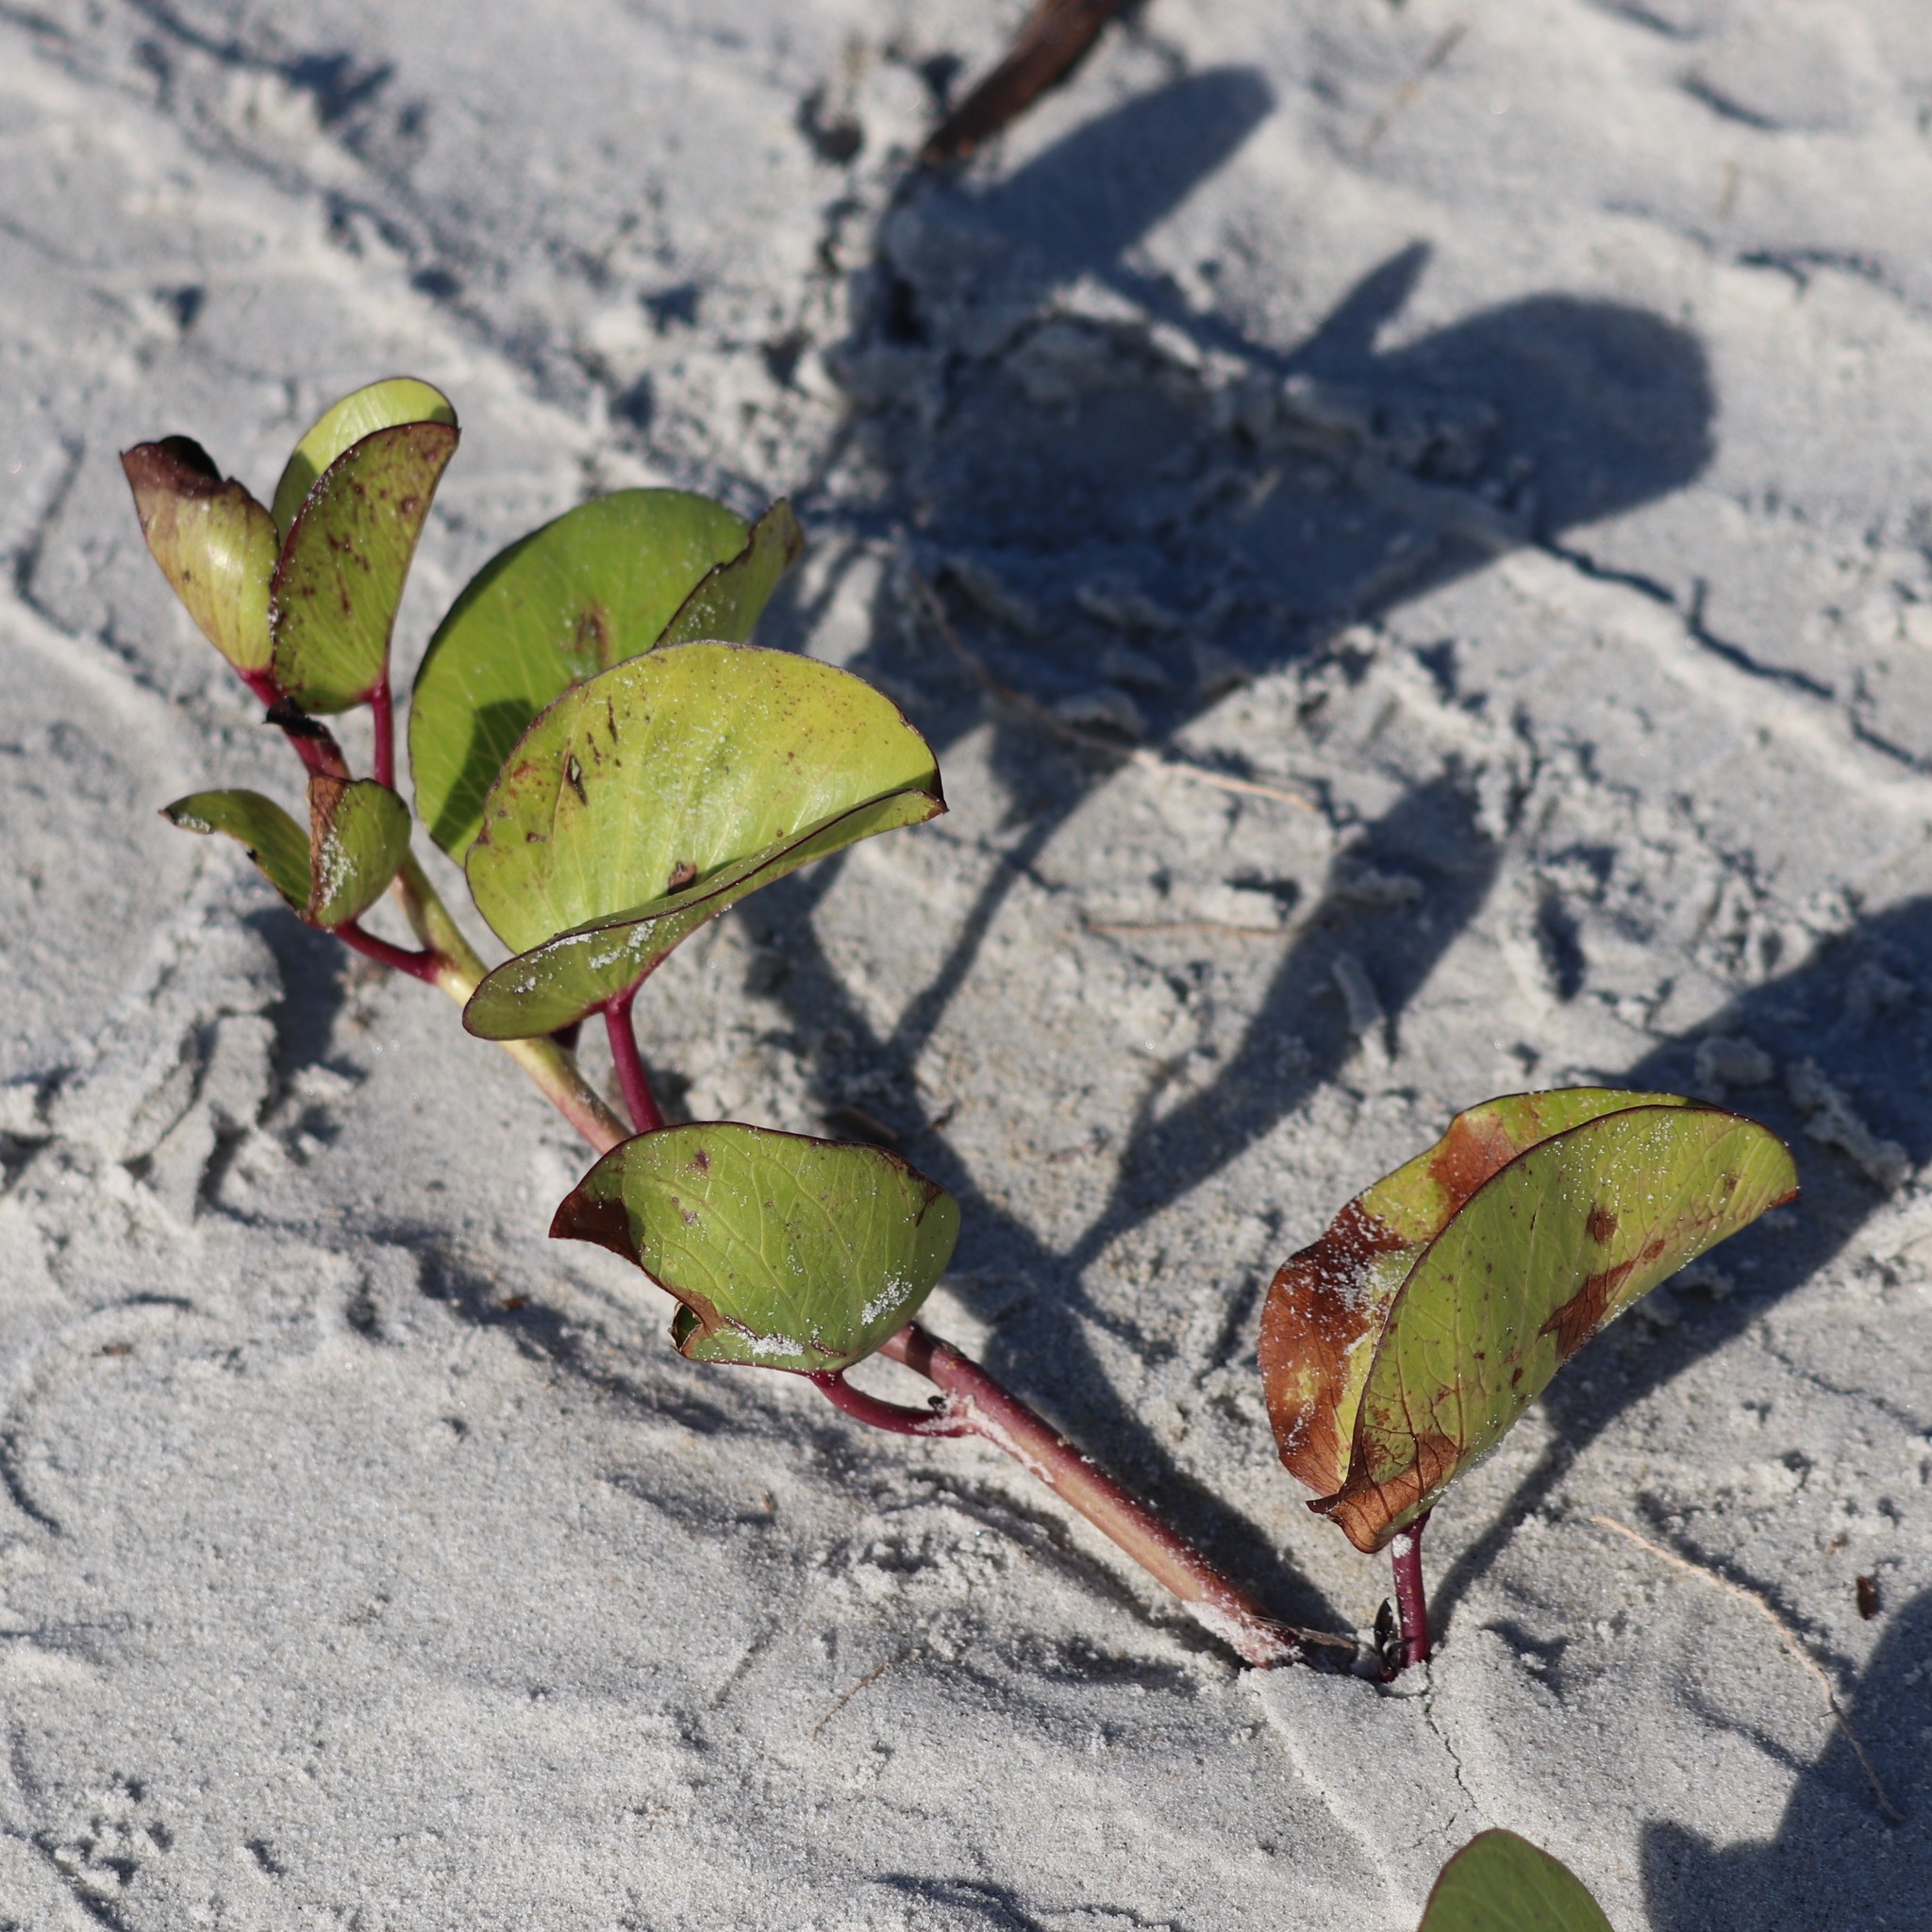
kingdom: Plantae
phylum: Tracheophyta
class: Magnoliopsida
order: Solanales
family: Convolvulaceae
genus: Ipomoea
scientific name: Ipomoea pes-caprae
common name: Beach morning glory
